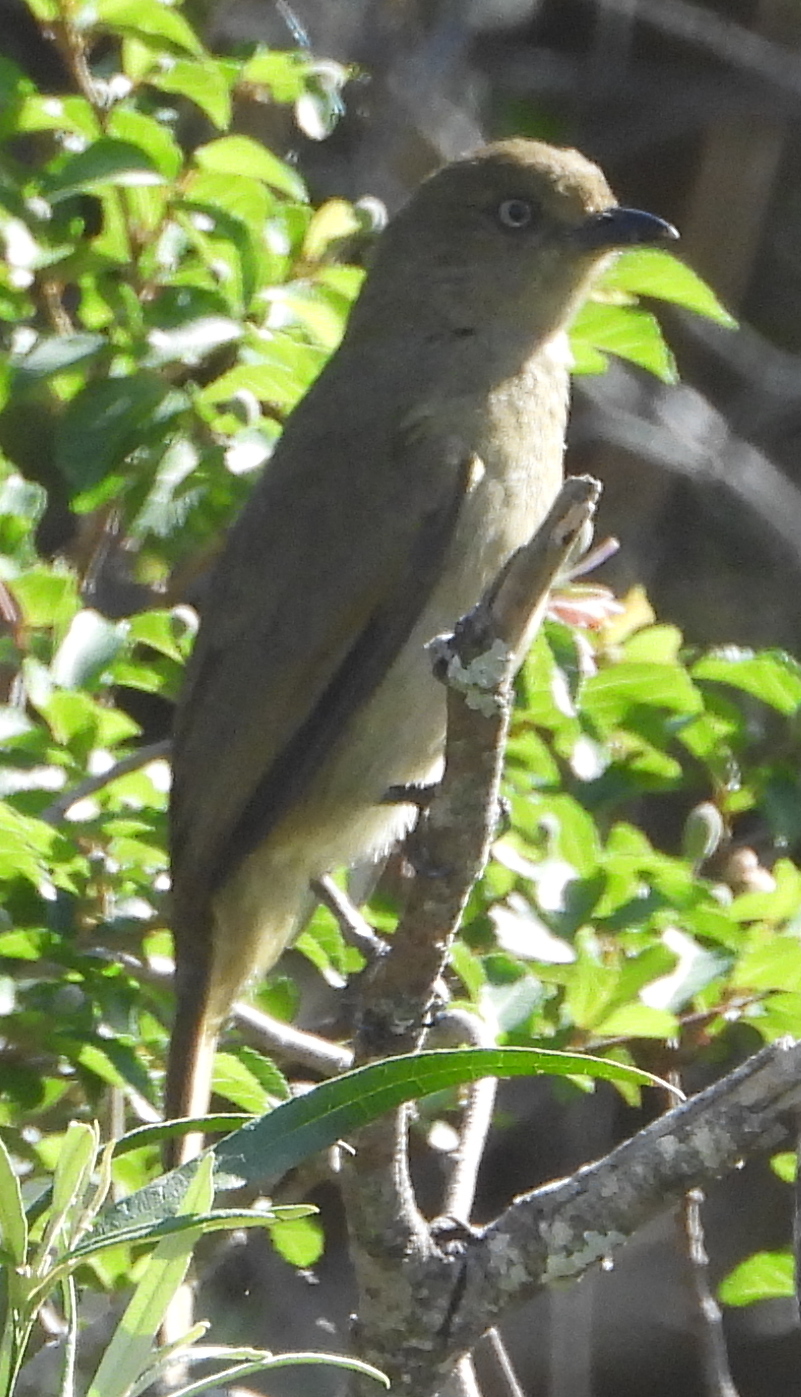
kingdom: Animalia
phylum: Chordata
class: Aves
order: Passeriformes
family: Pycnonotidae
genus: Andropadus
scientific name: Andropadus importunus
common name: Sombre greenbul
